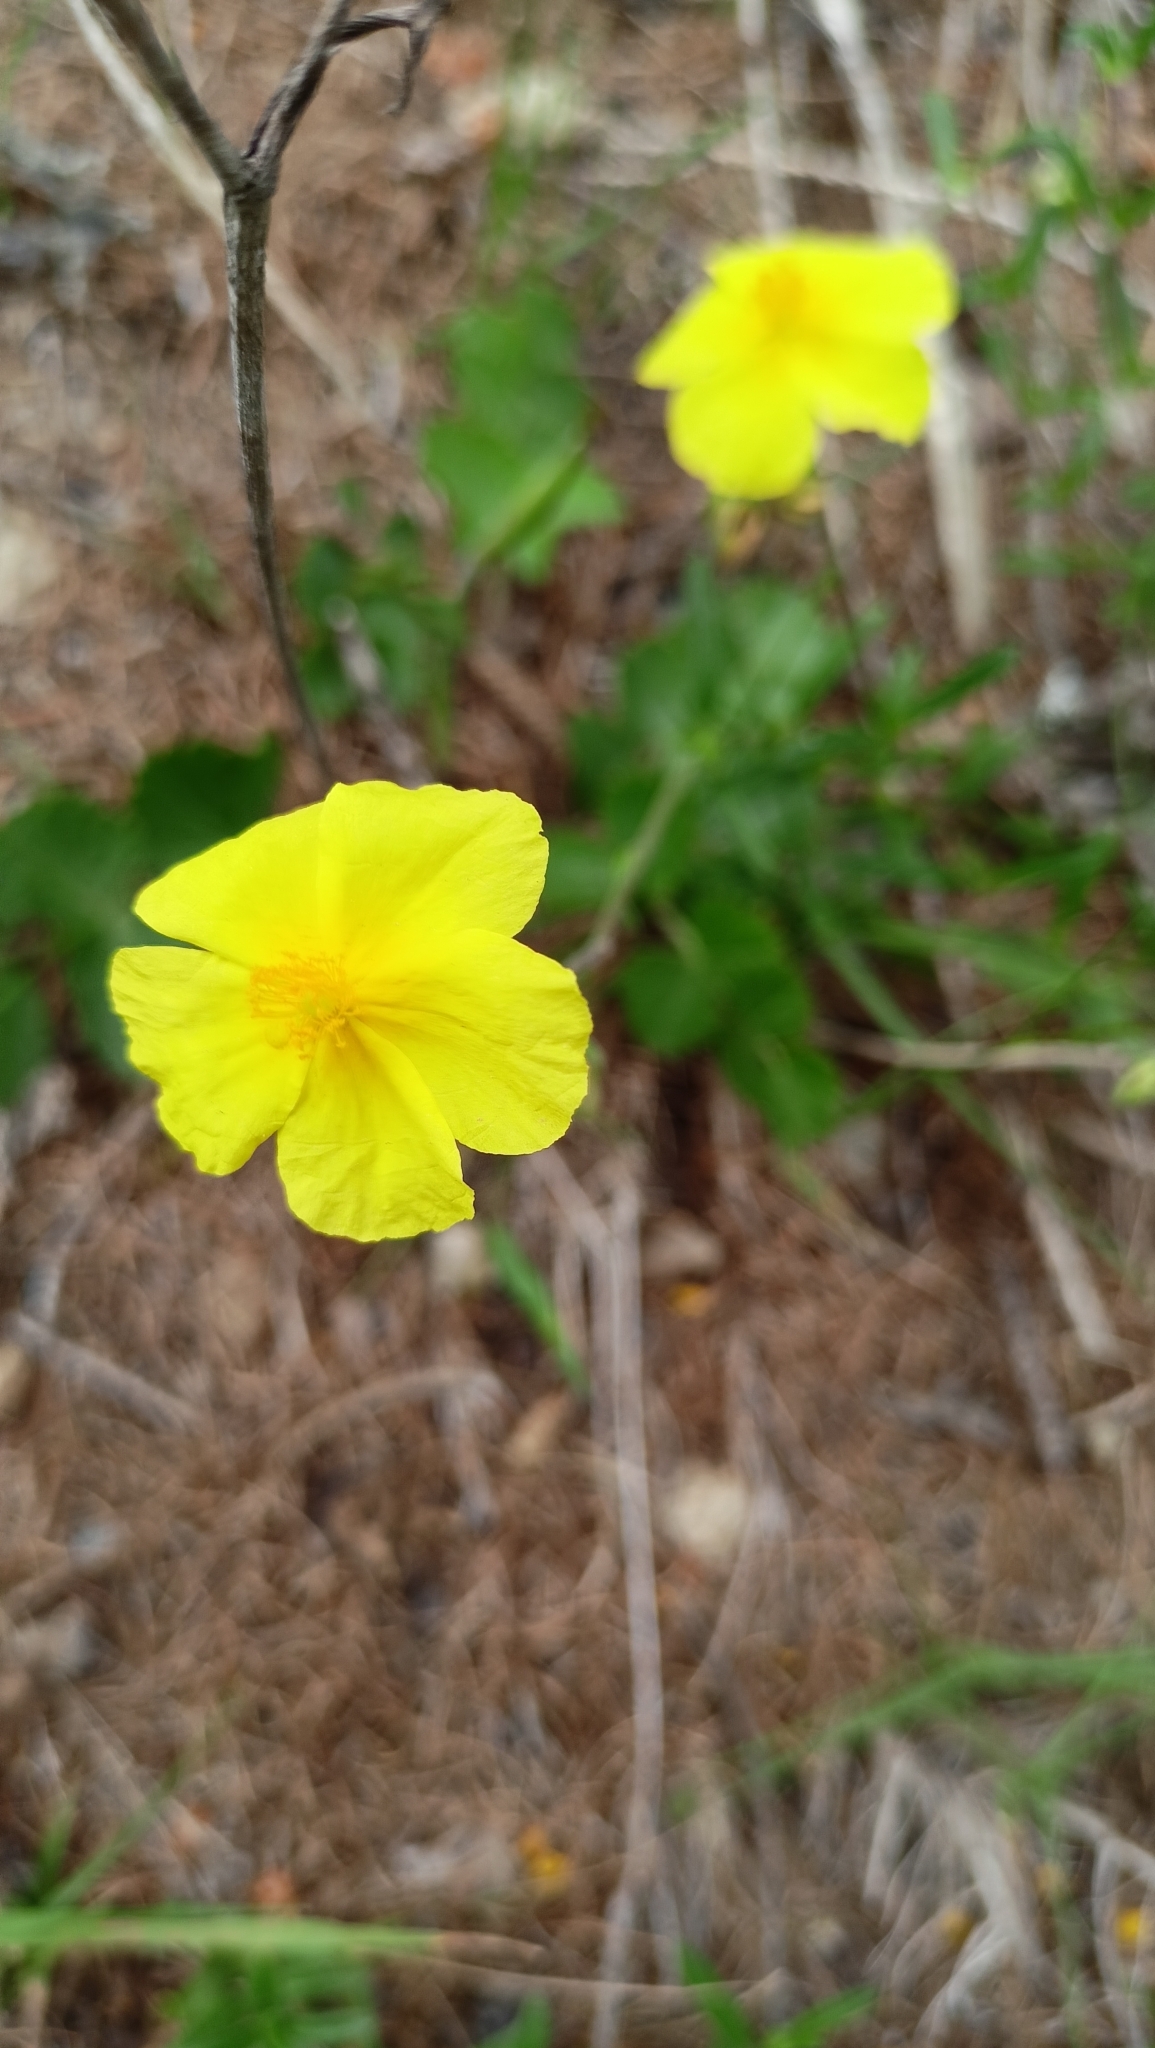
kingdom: Plantae
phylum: Tracheophyta
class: Magnoliopsida
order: Malvales
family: Cistaceae
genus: Helianthemum
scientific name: Helianthemum nummularium
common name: Common rock-rose
